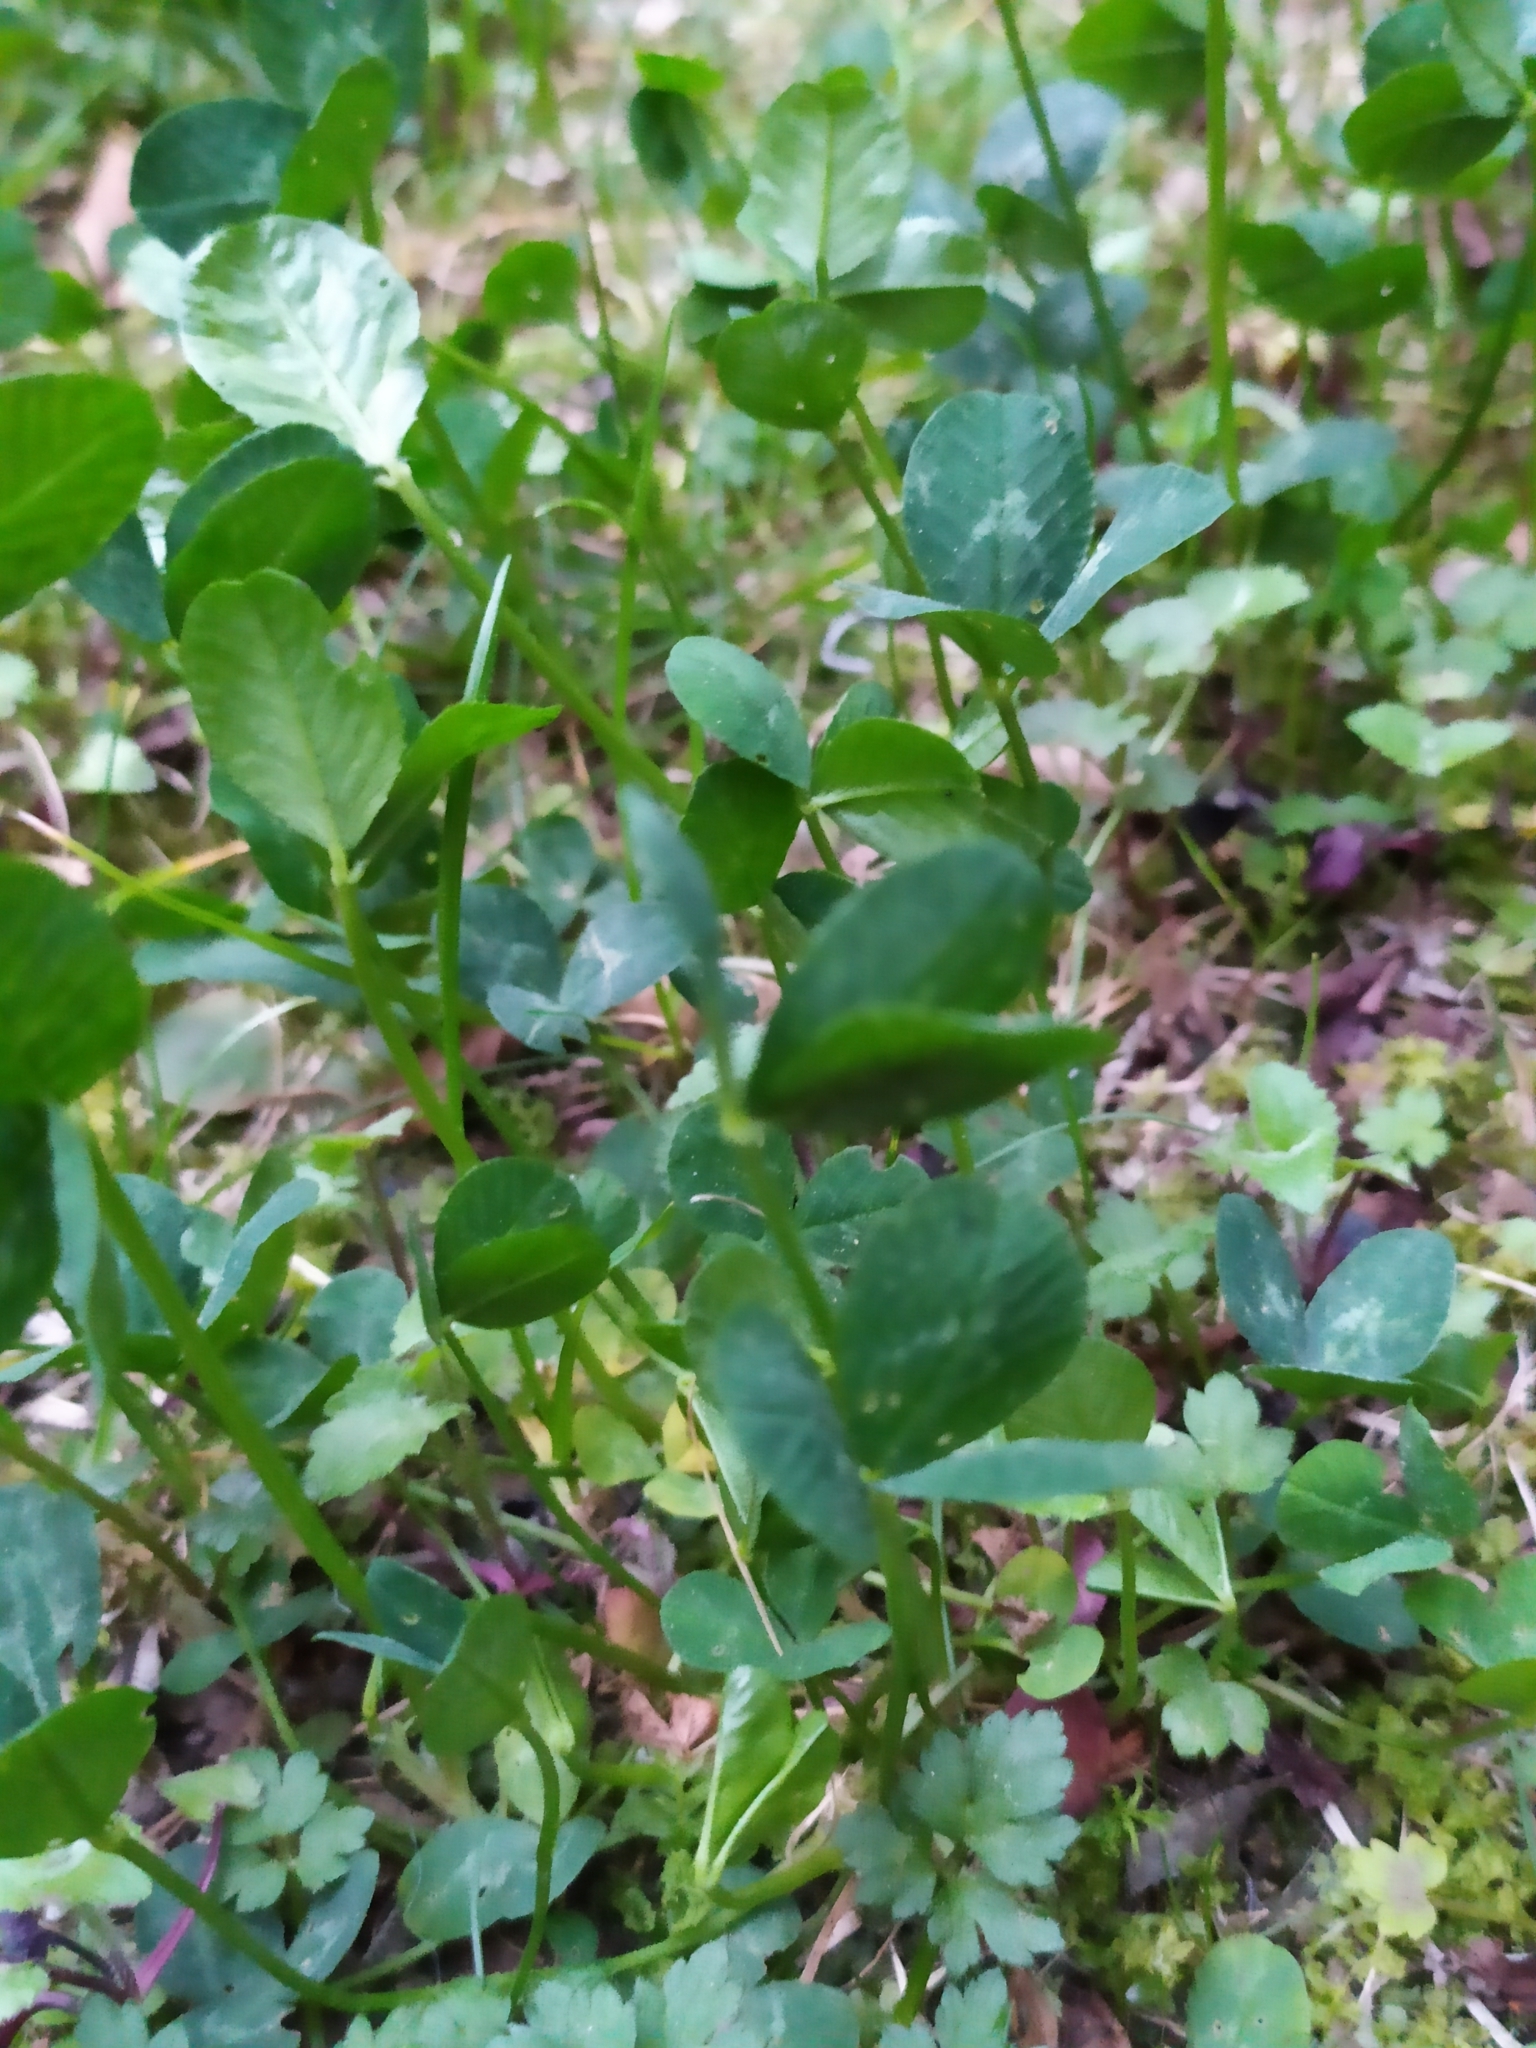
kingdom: Plantae
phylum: Tracheophyta
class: Magnoliopsida
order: Fabales
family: Fabaceae
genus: Trifolium
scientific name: Trifolium repens
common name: White clover
